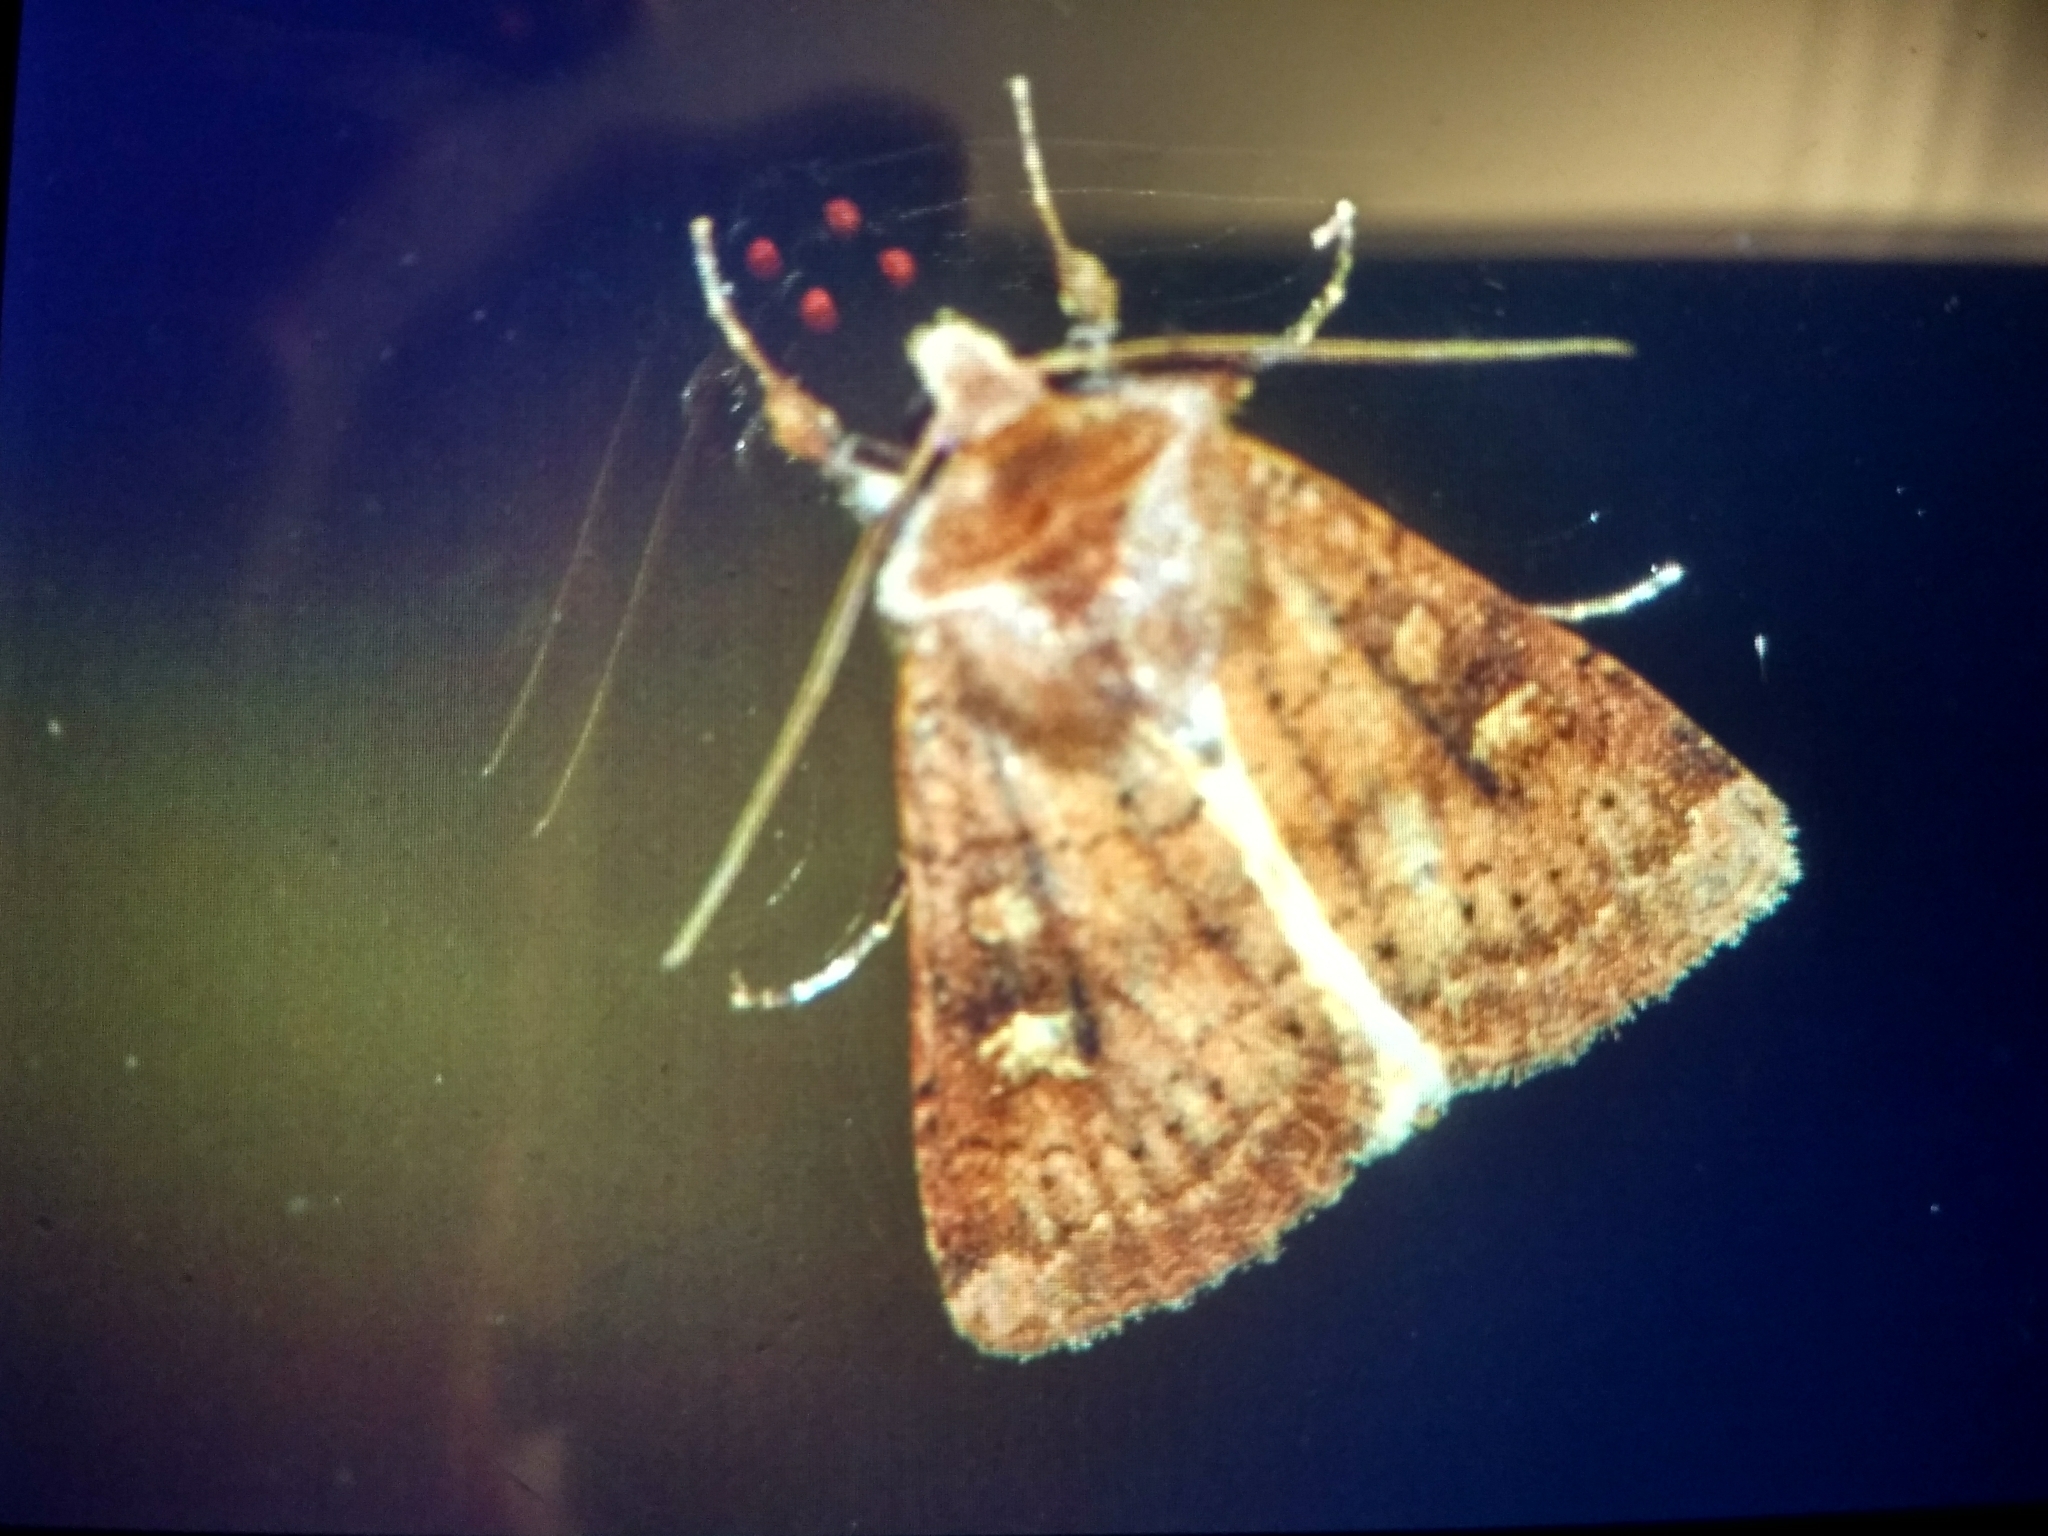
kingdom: Animalia
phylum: Arthropoda
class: Insecta
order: Lepidoptera
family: Noctuidae
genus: Xestia
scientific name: Xestia xanthographa
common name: Square-spot rustic
